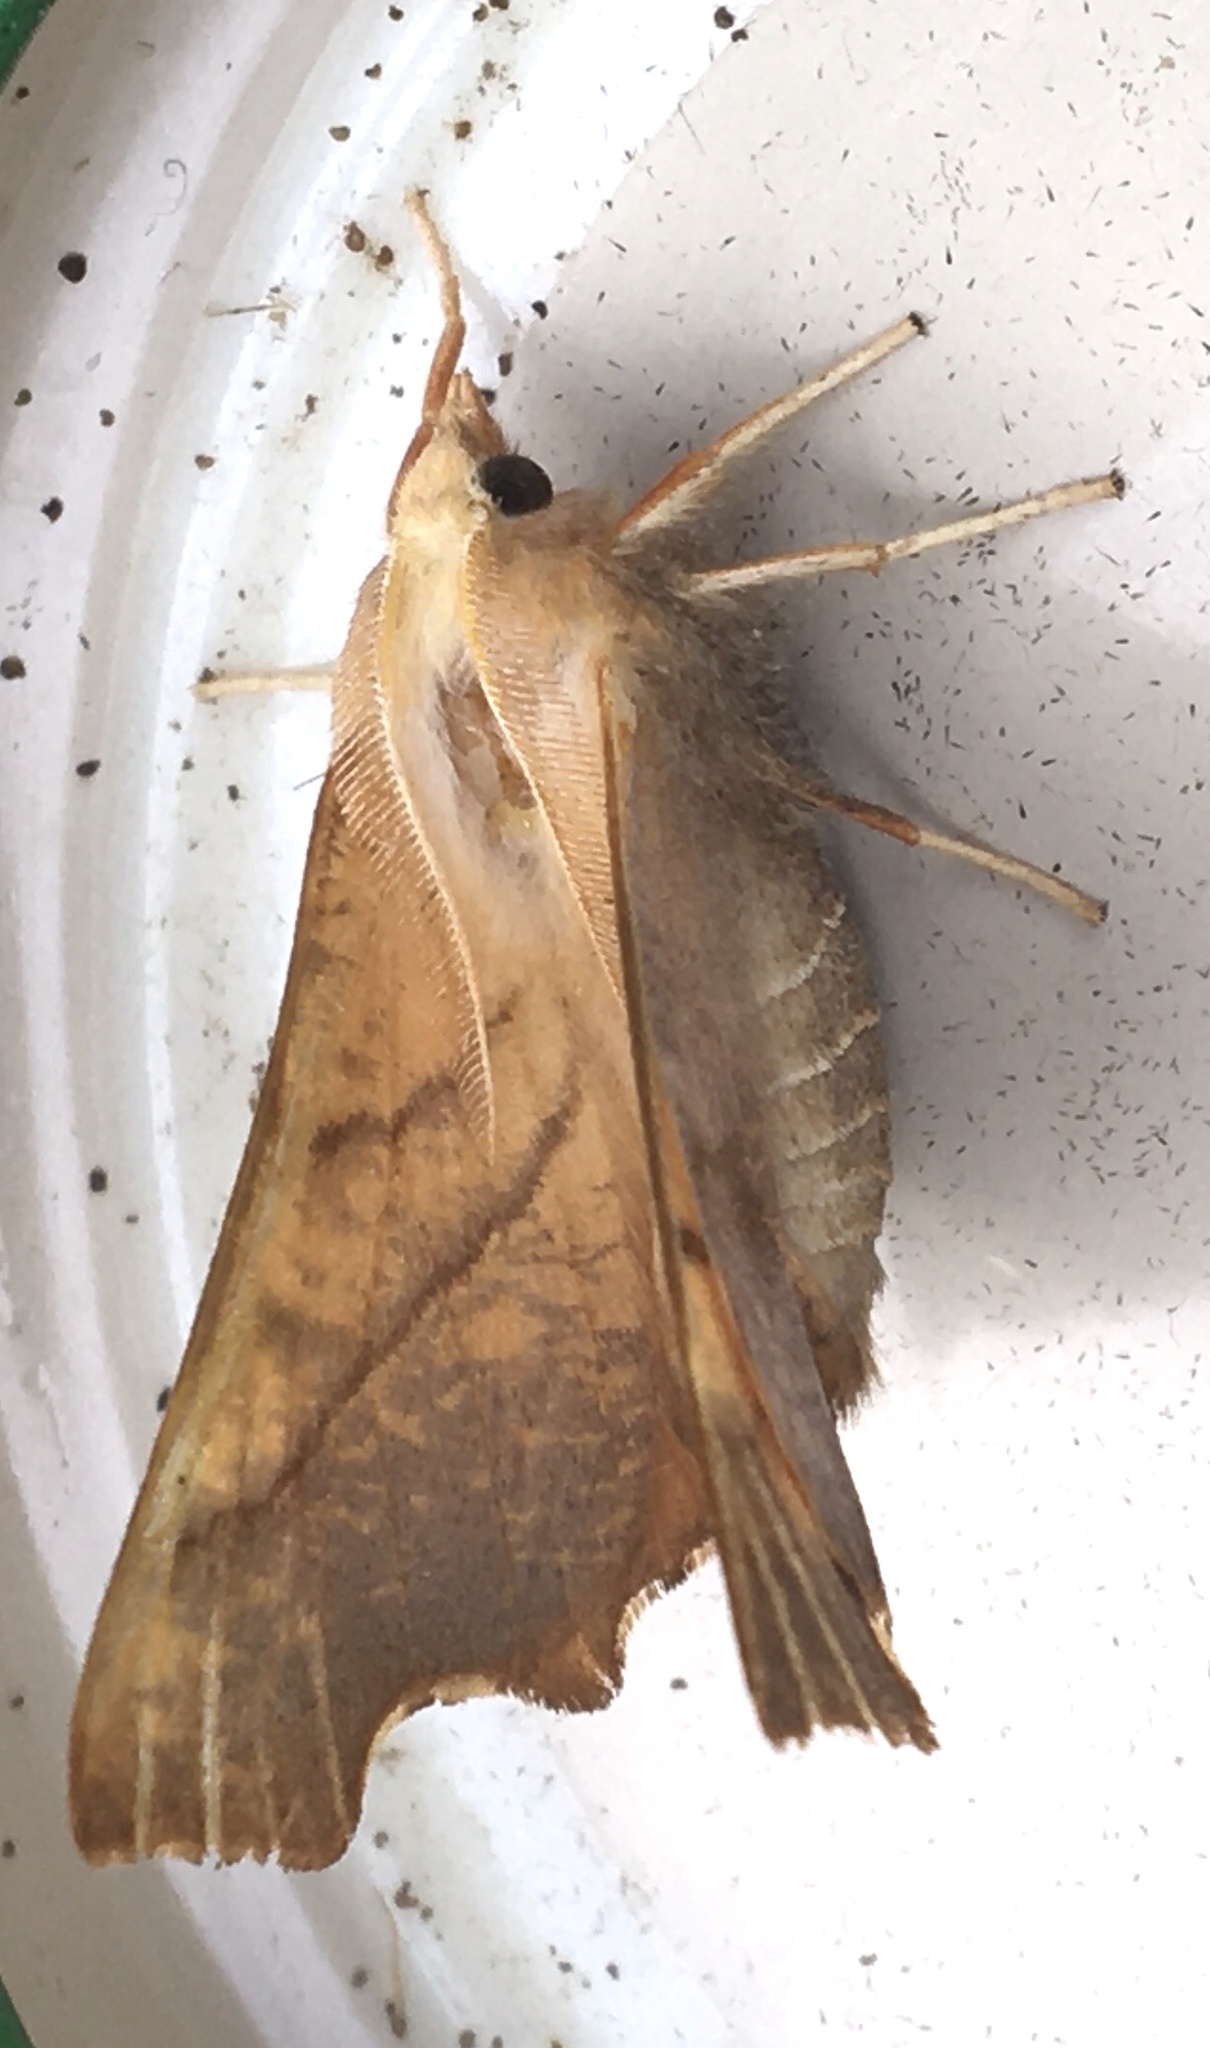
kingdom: Animalia
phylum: Arthropoda
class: Insecta
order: Lepidoptera
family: Geometridae
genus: Ennomos
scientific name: Ennomos fuscantaria
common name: Dusky thorn
